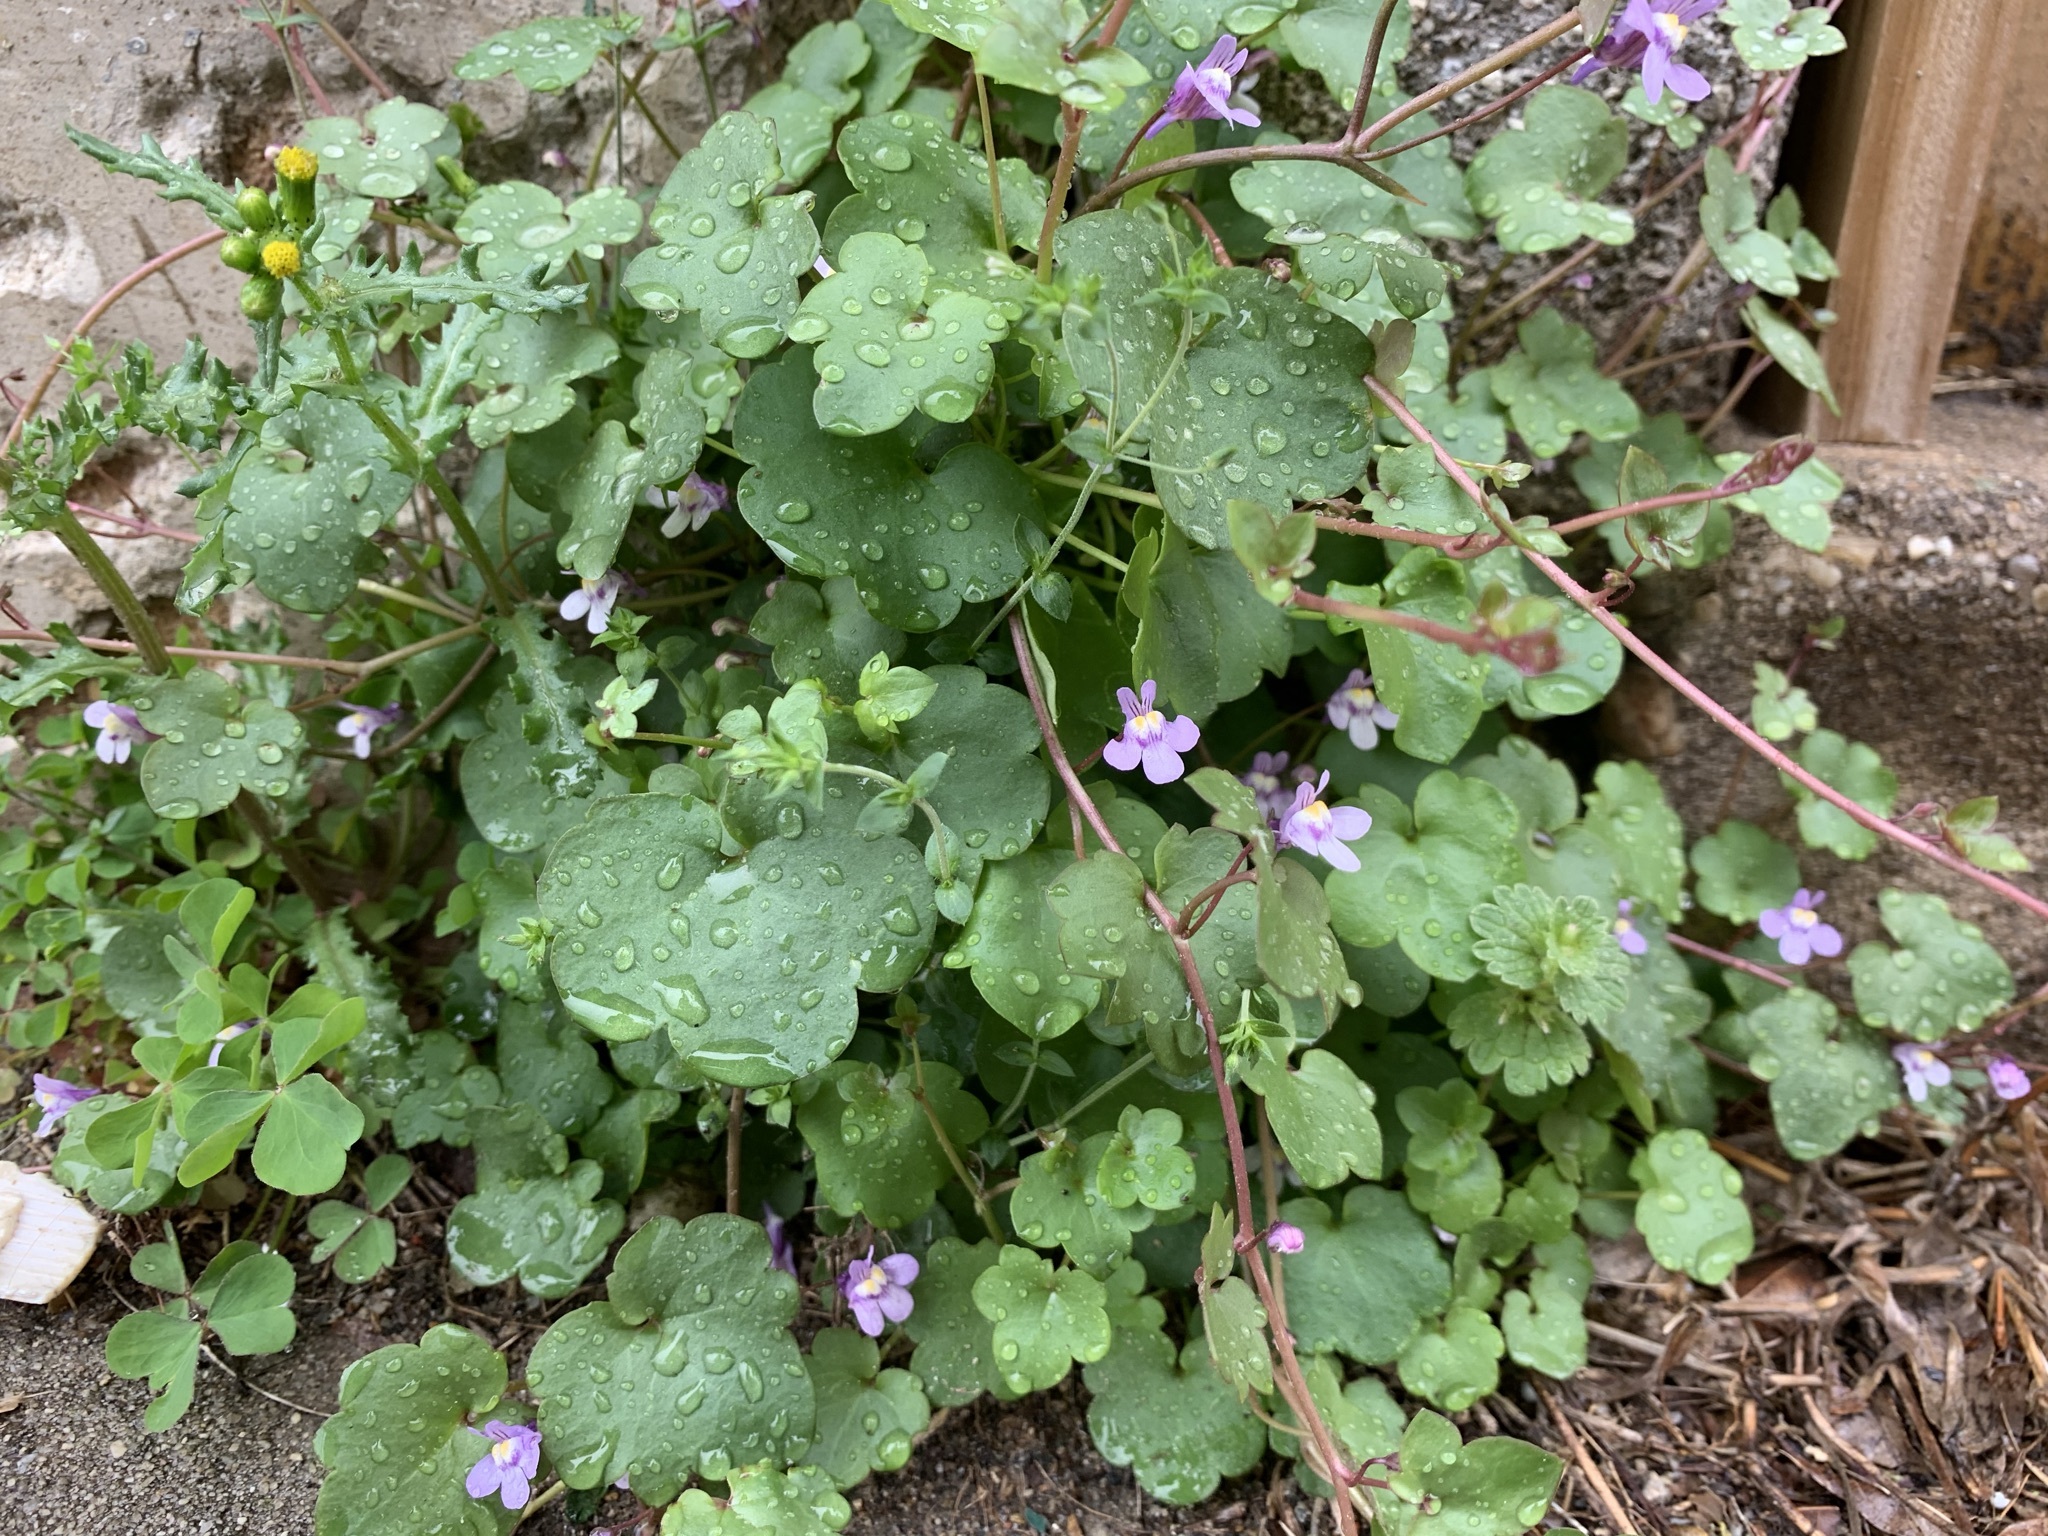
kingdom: Plantae
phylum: Tracheophyta
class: Magnoliopsida
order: Lamiales
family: Plantaginaceae
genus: Cymbalaria
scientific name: Cymbalaria muralis
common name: Ivy-leaved toadflax
